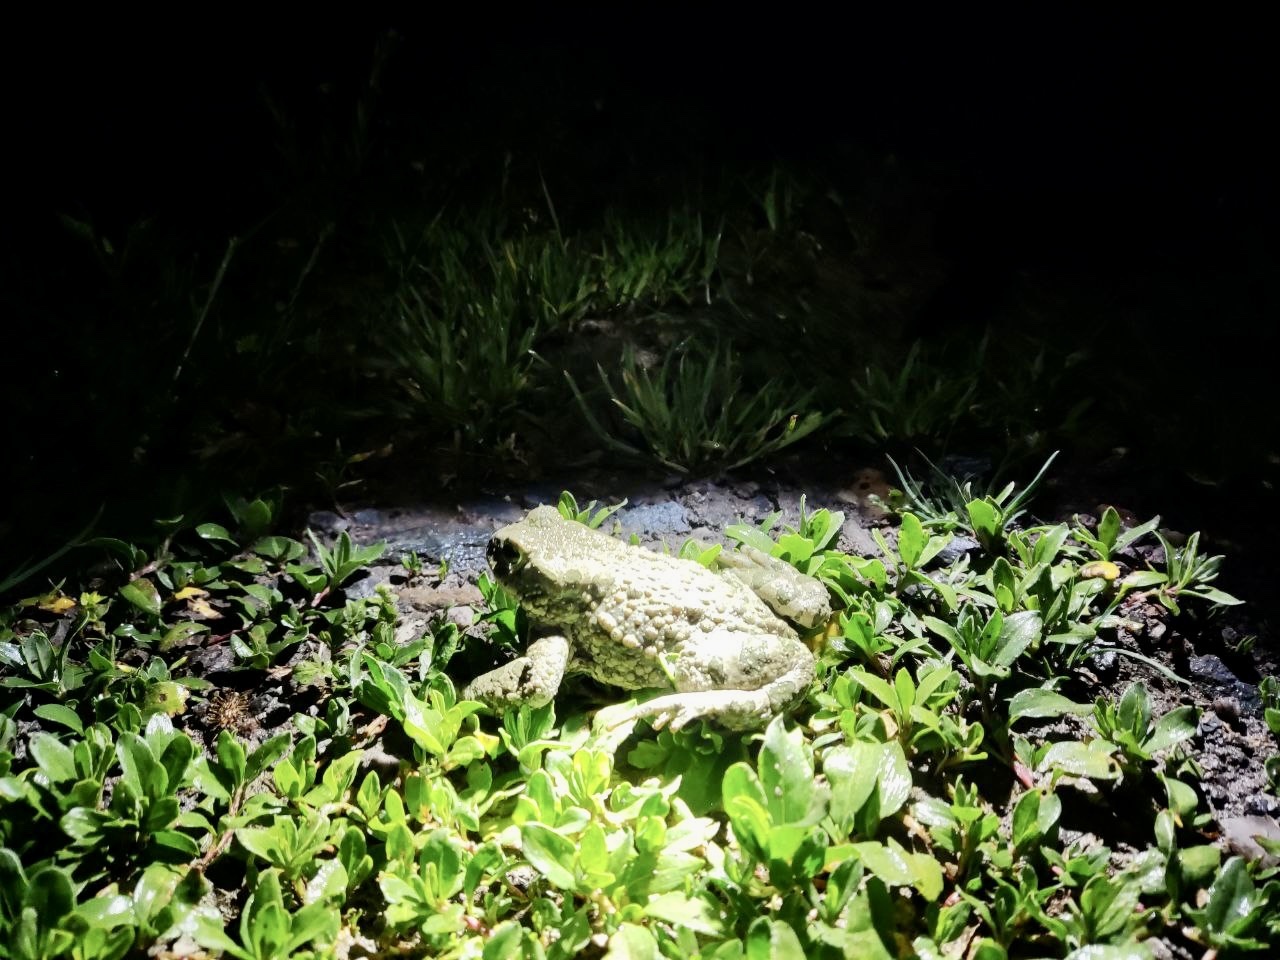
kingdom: Animalia
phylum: Chordata
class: Amphibia
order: Anura
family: Bufonidae
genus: Bufotes
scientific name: Bufotes viridis
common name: European green toad
